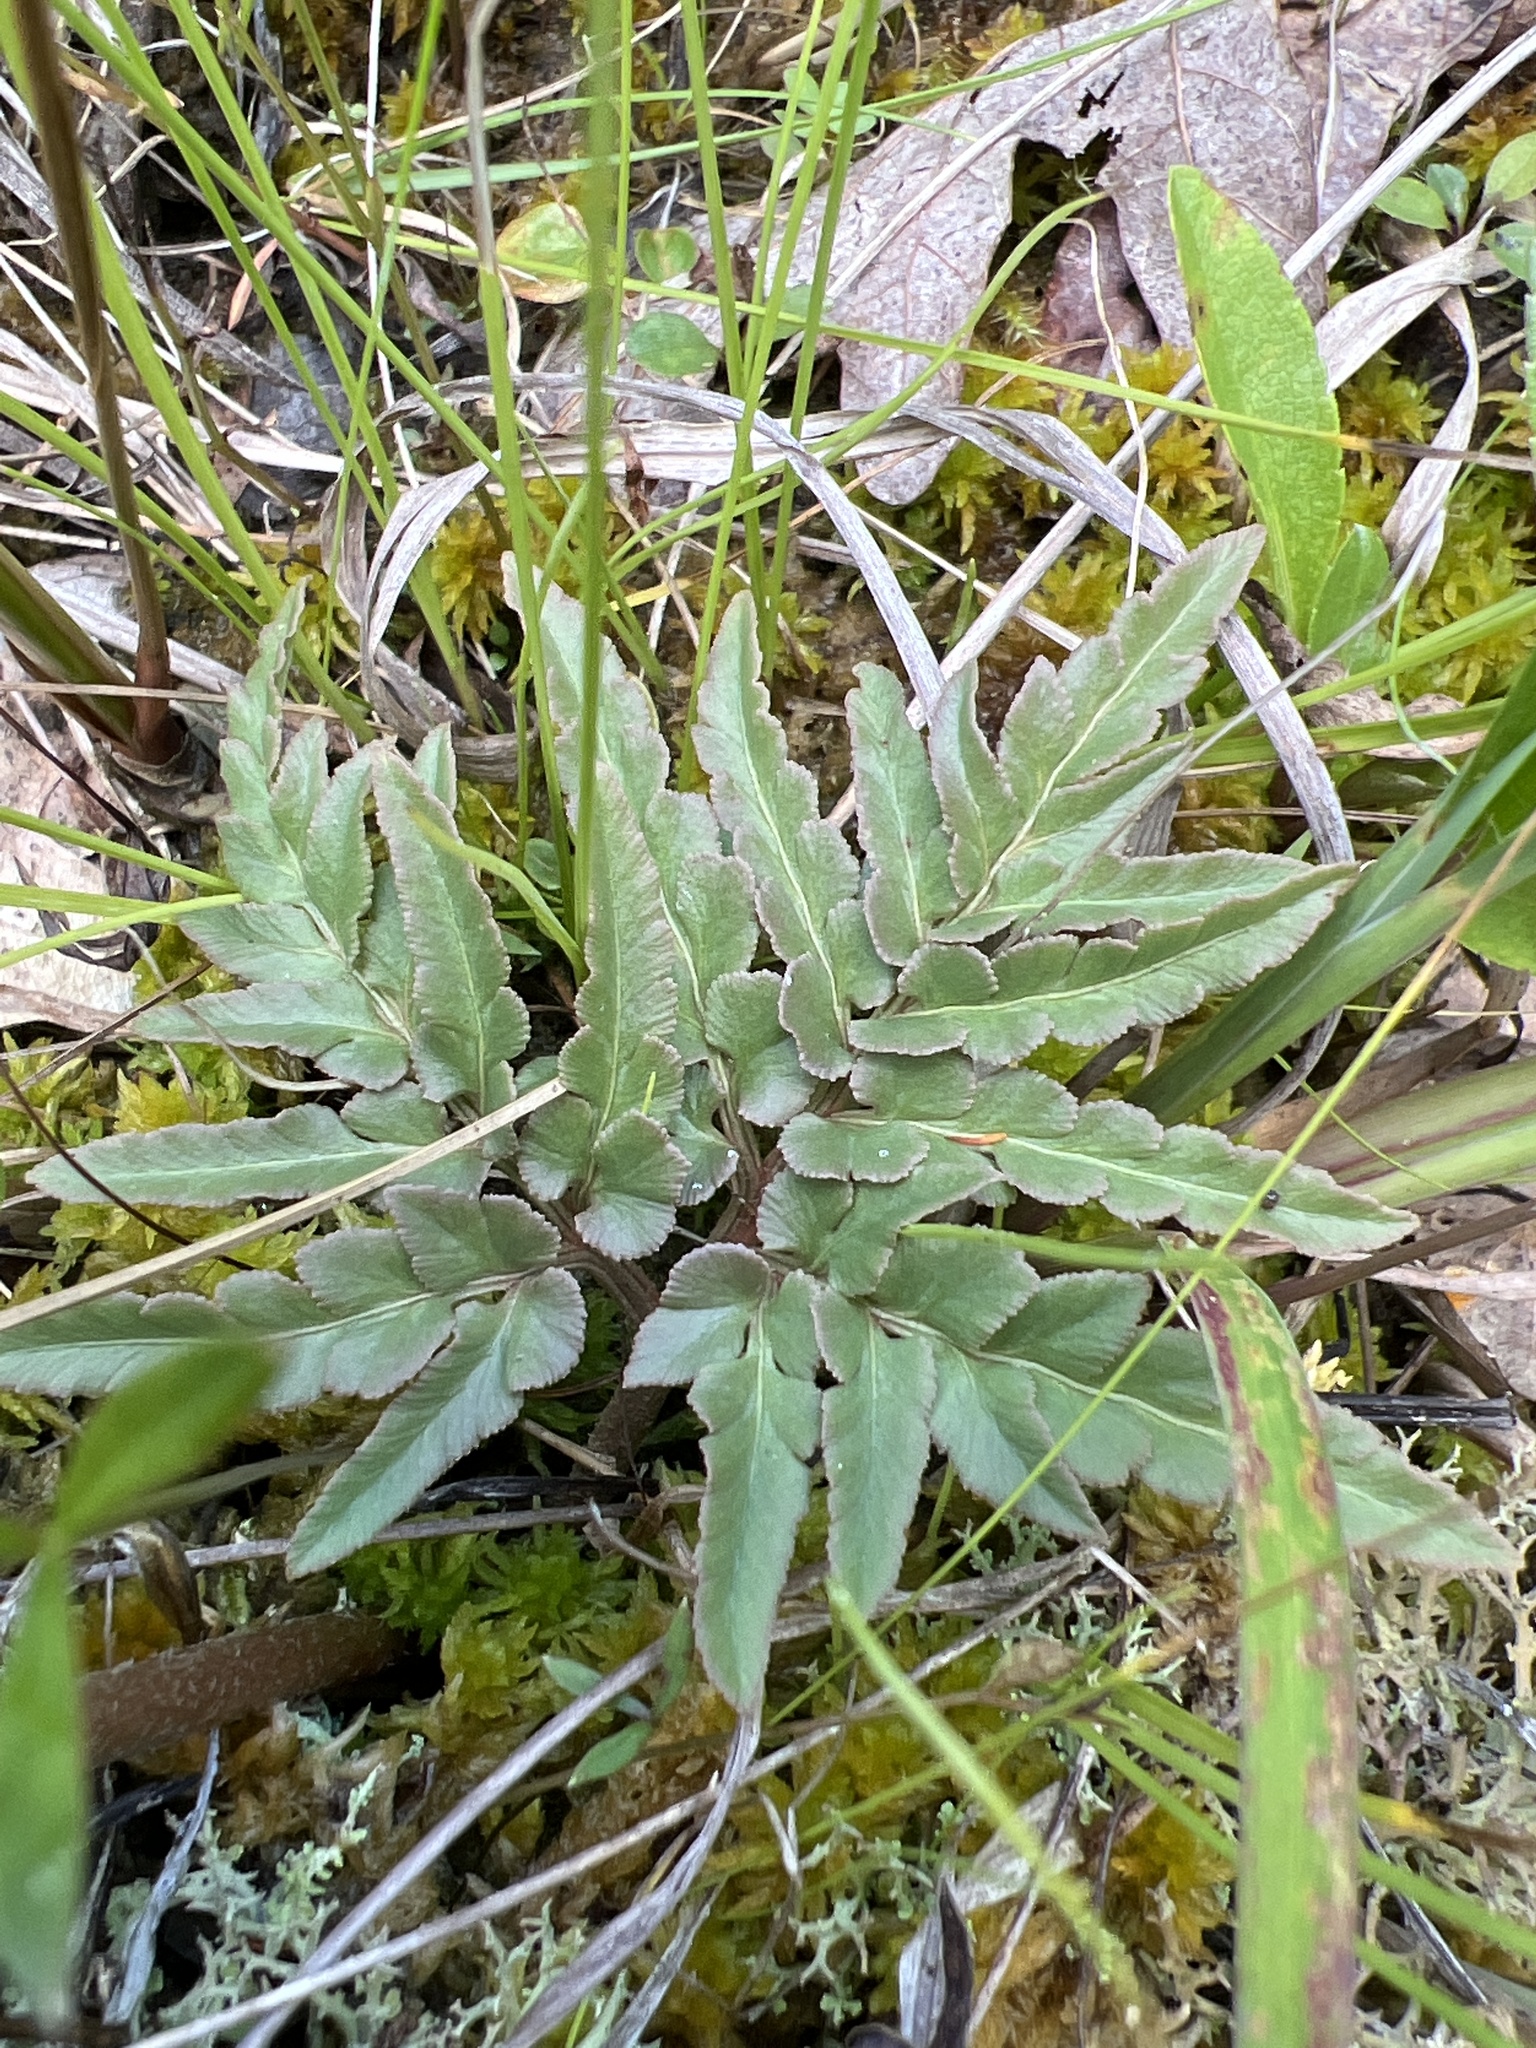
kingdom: Plantae
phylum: Tracheophyta
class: Polypodiopsida
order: Ophioglossales
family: Ophioglossaceae
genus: Sceptridium
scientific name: Sceptridium dissectum
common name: Cut-leaved grapefern
